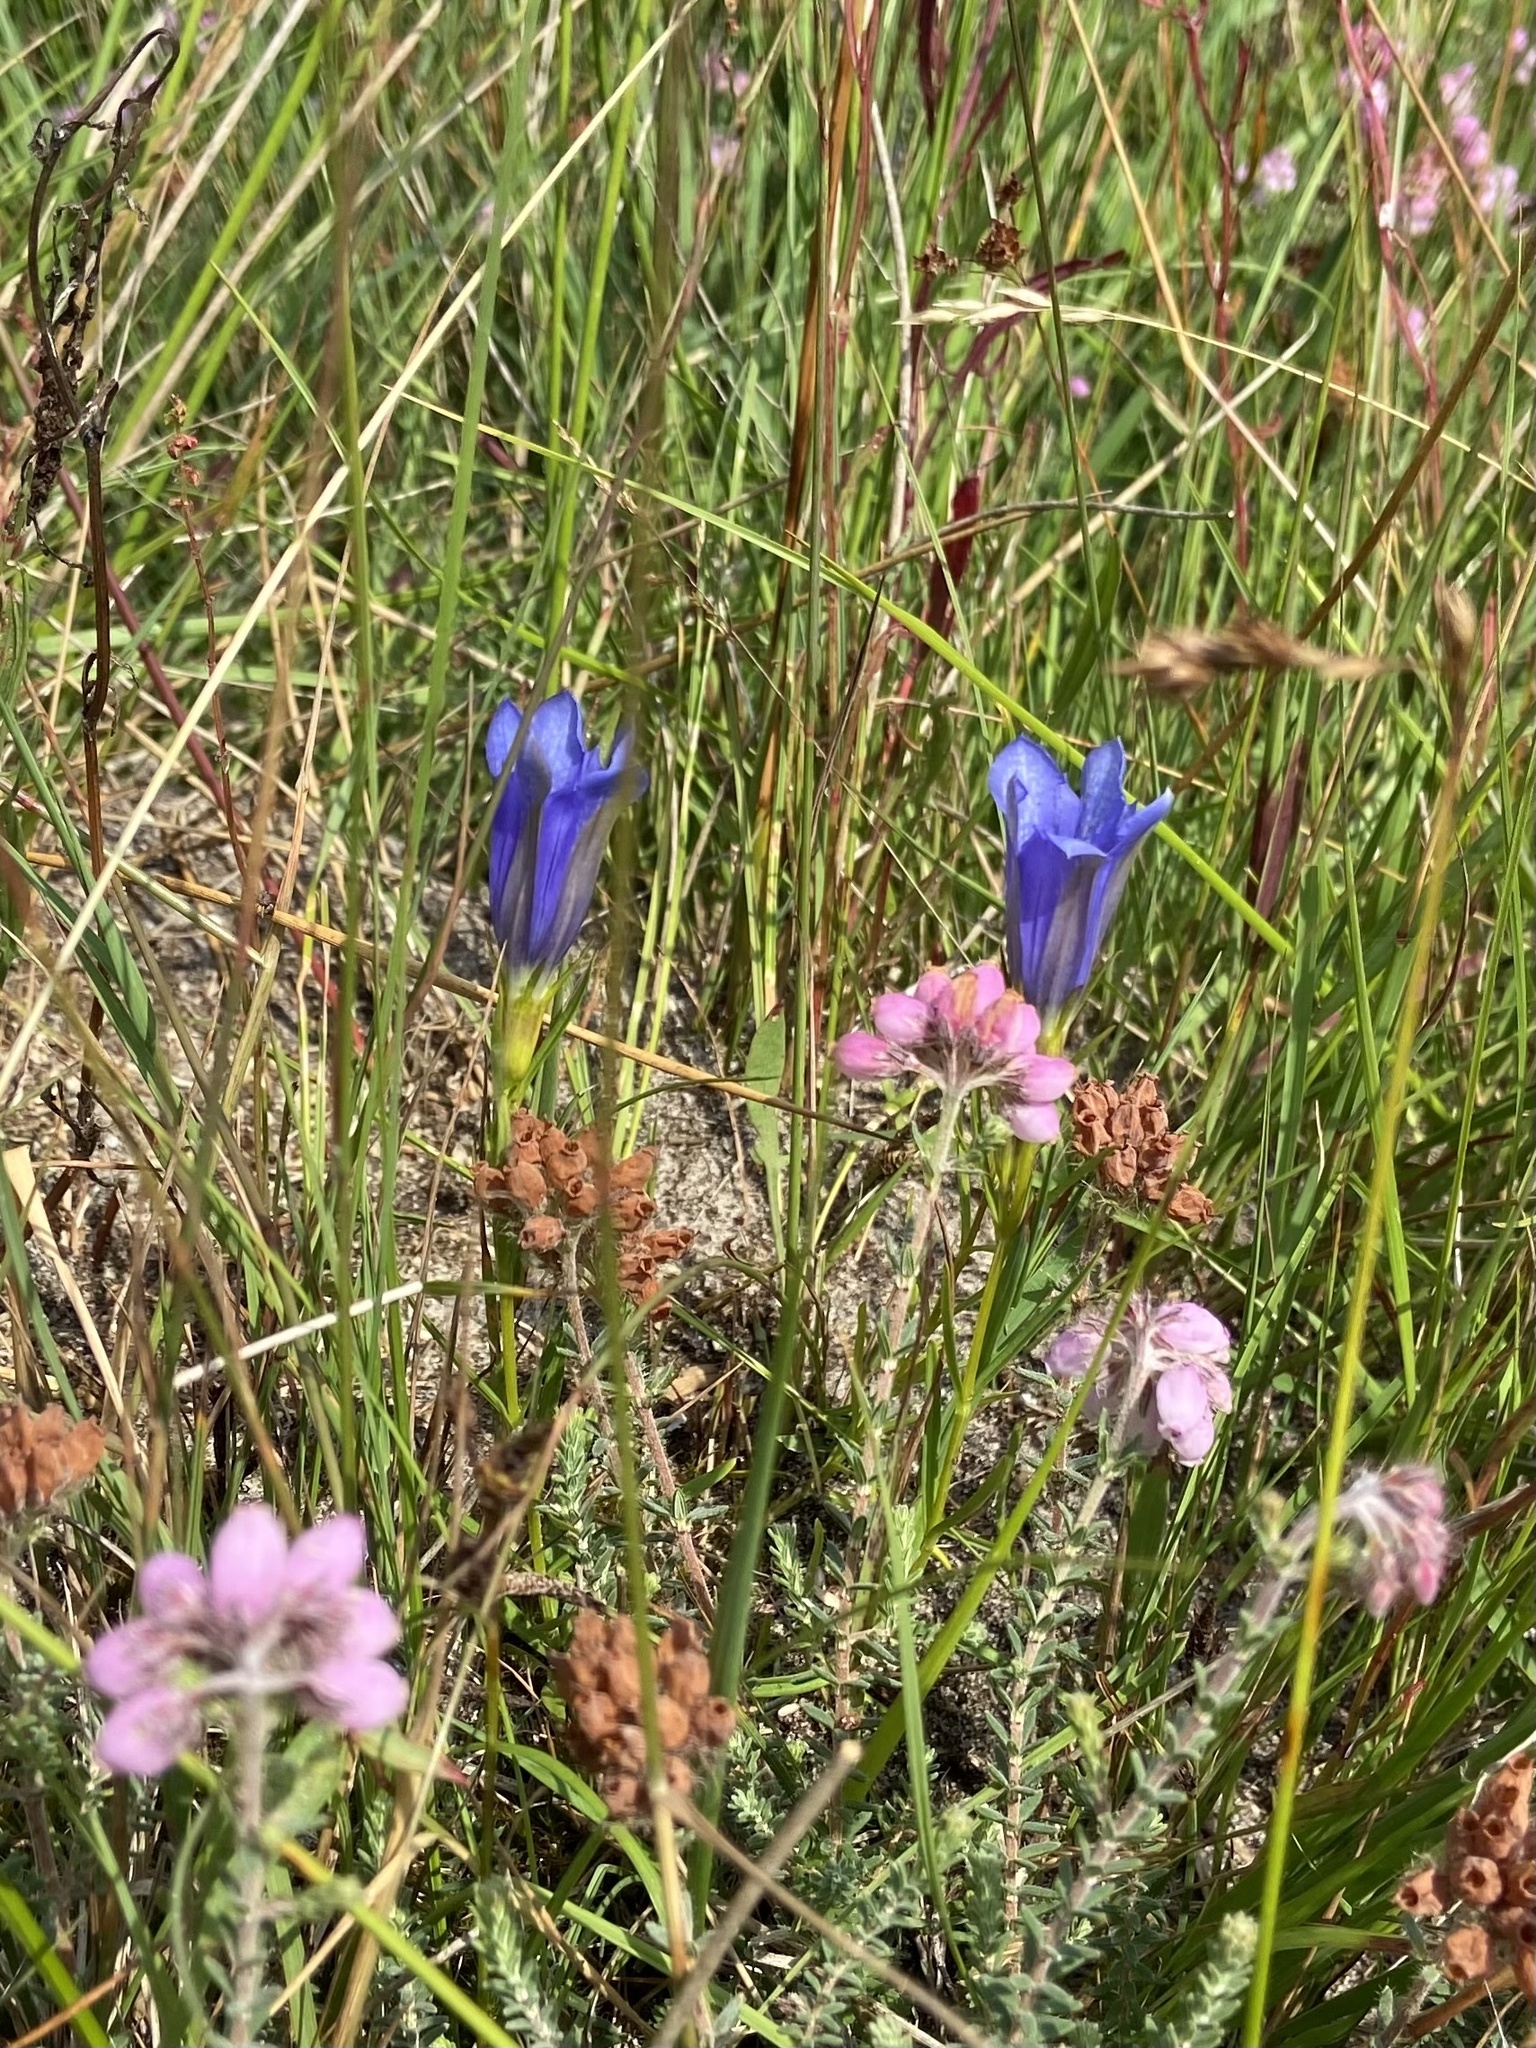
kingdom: Plantae
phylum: Tracheophyta
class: Magnoliopsida
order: Gentianales
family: Gentianaceae
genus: Gentiana
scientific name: Gentiana pneumonanthe
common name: Marsh gentian
